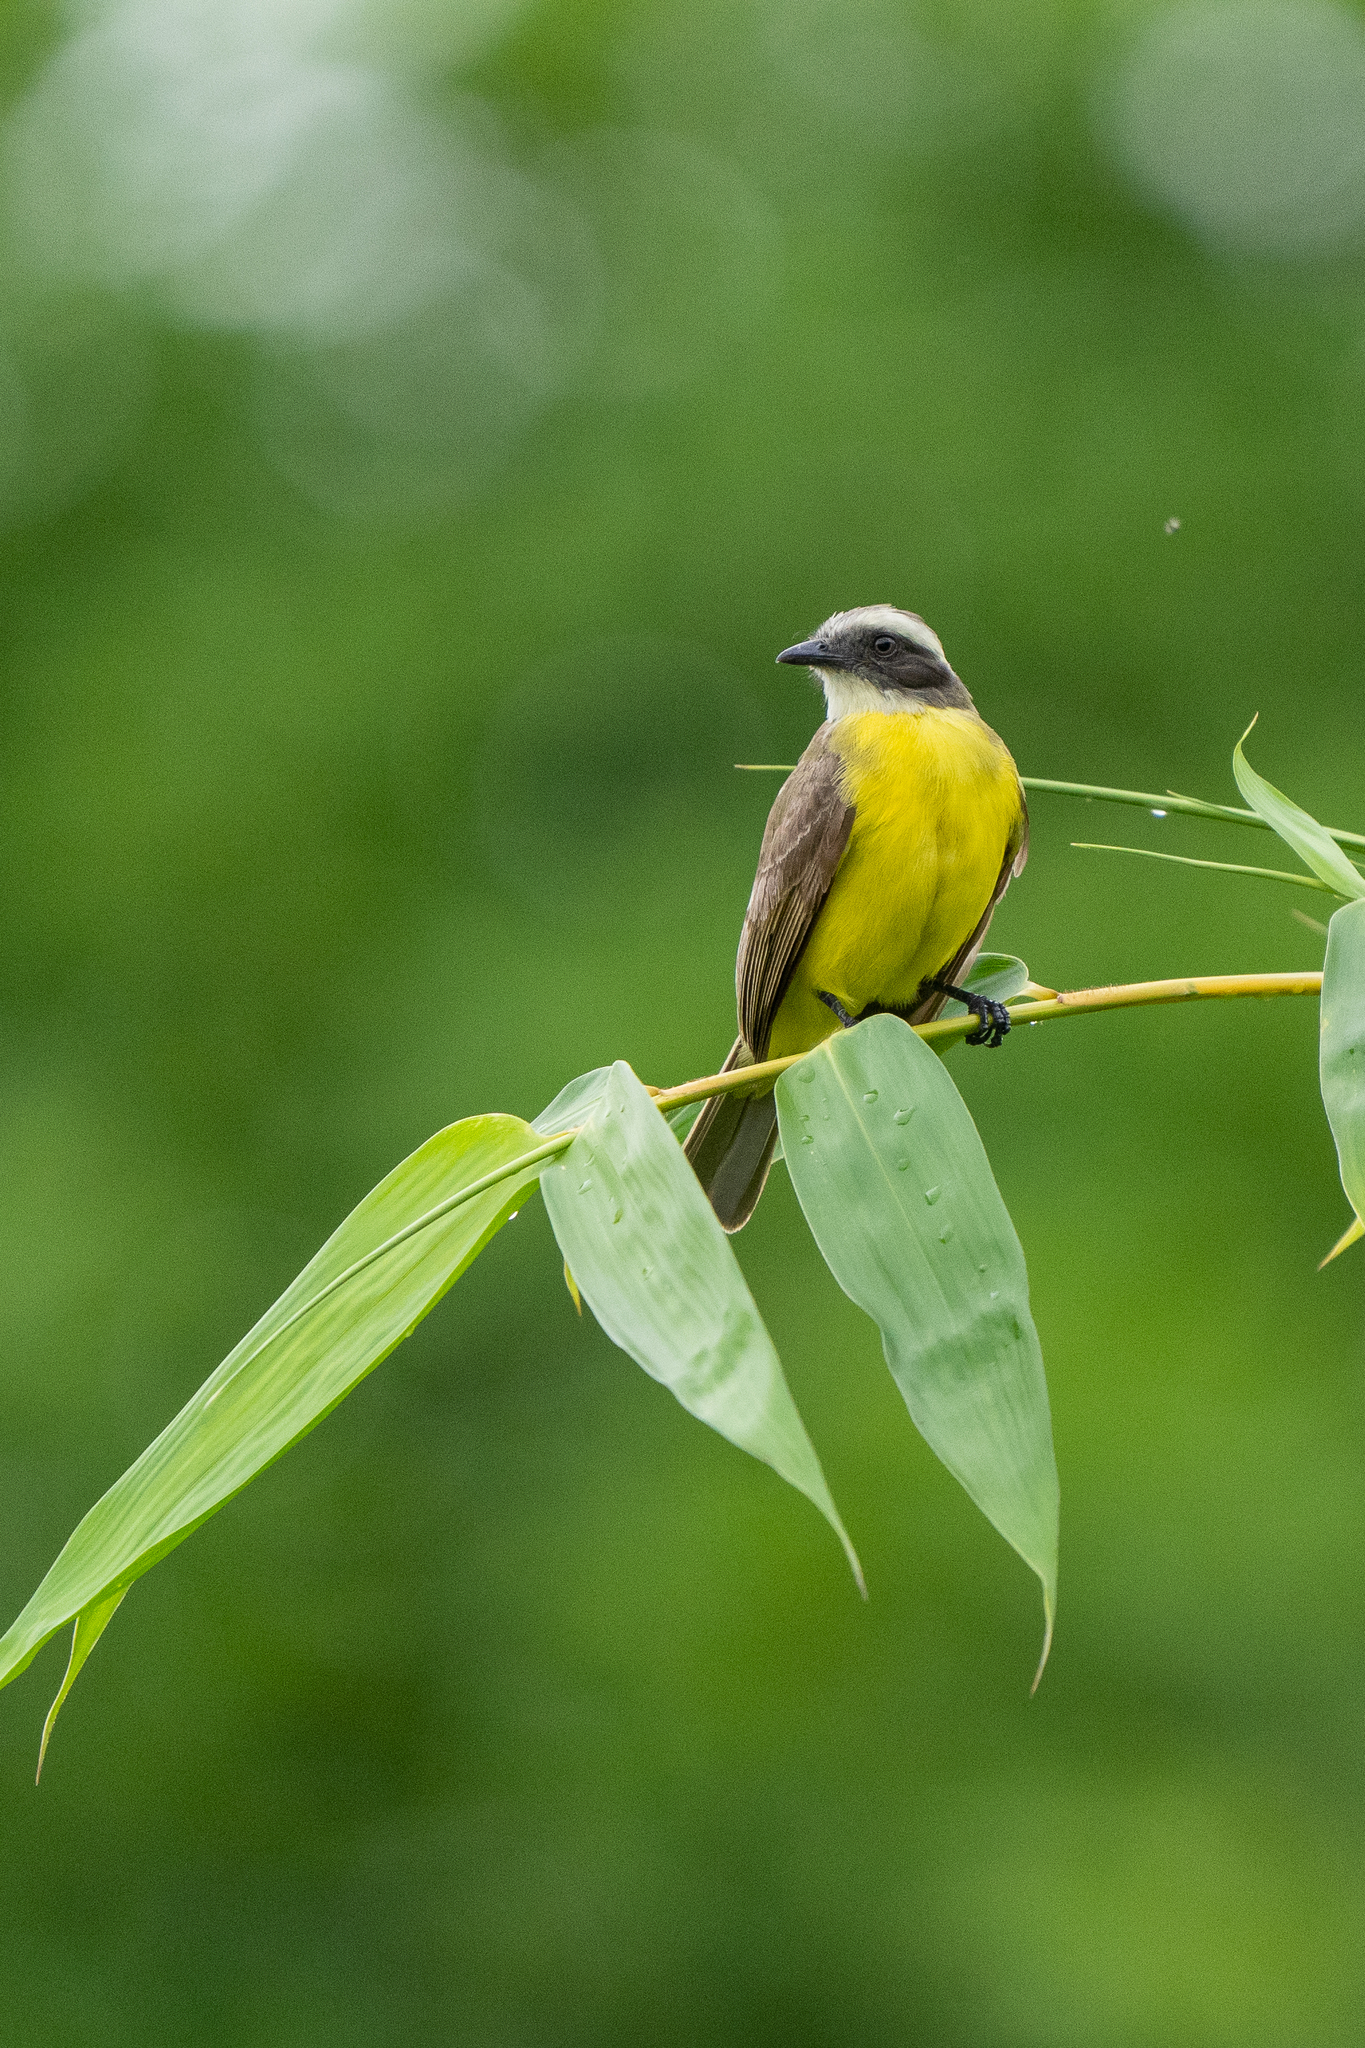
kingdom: Animalia
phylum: Chordata
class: Aves
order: Passeriformes
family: Tyrannidae
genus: Myiozetetes
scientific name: Myiozetetes similis
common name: Social flycatcher
